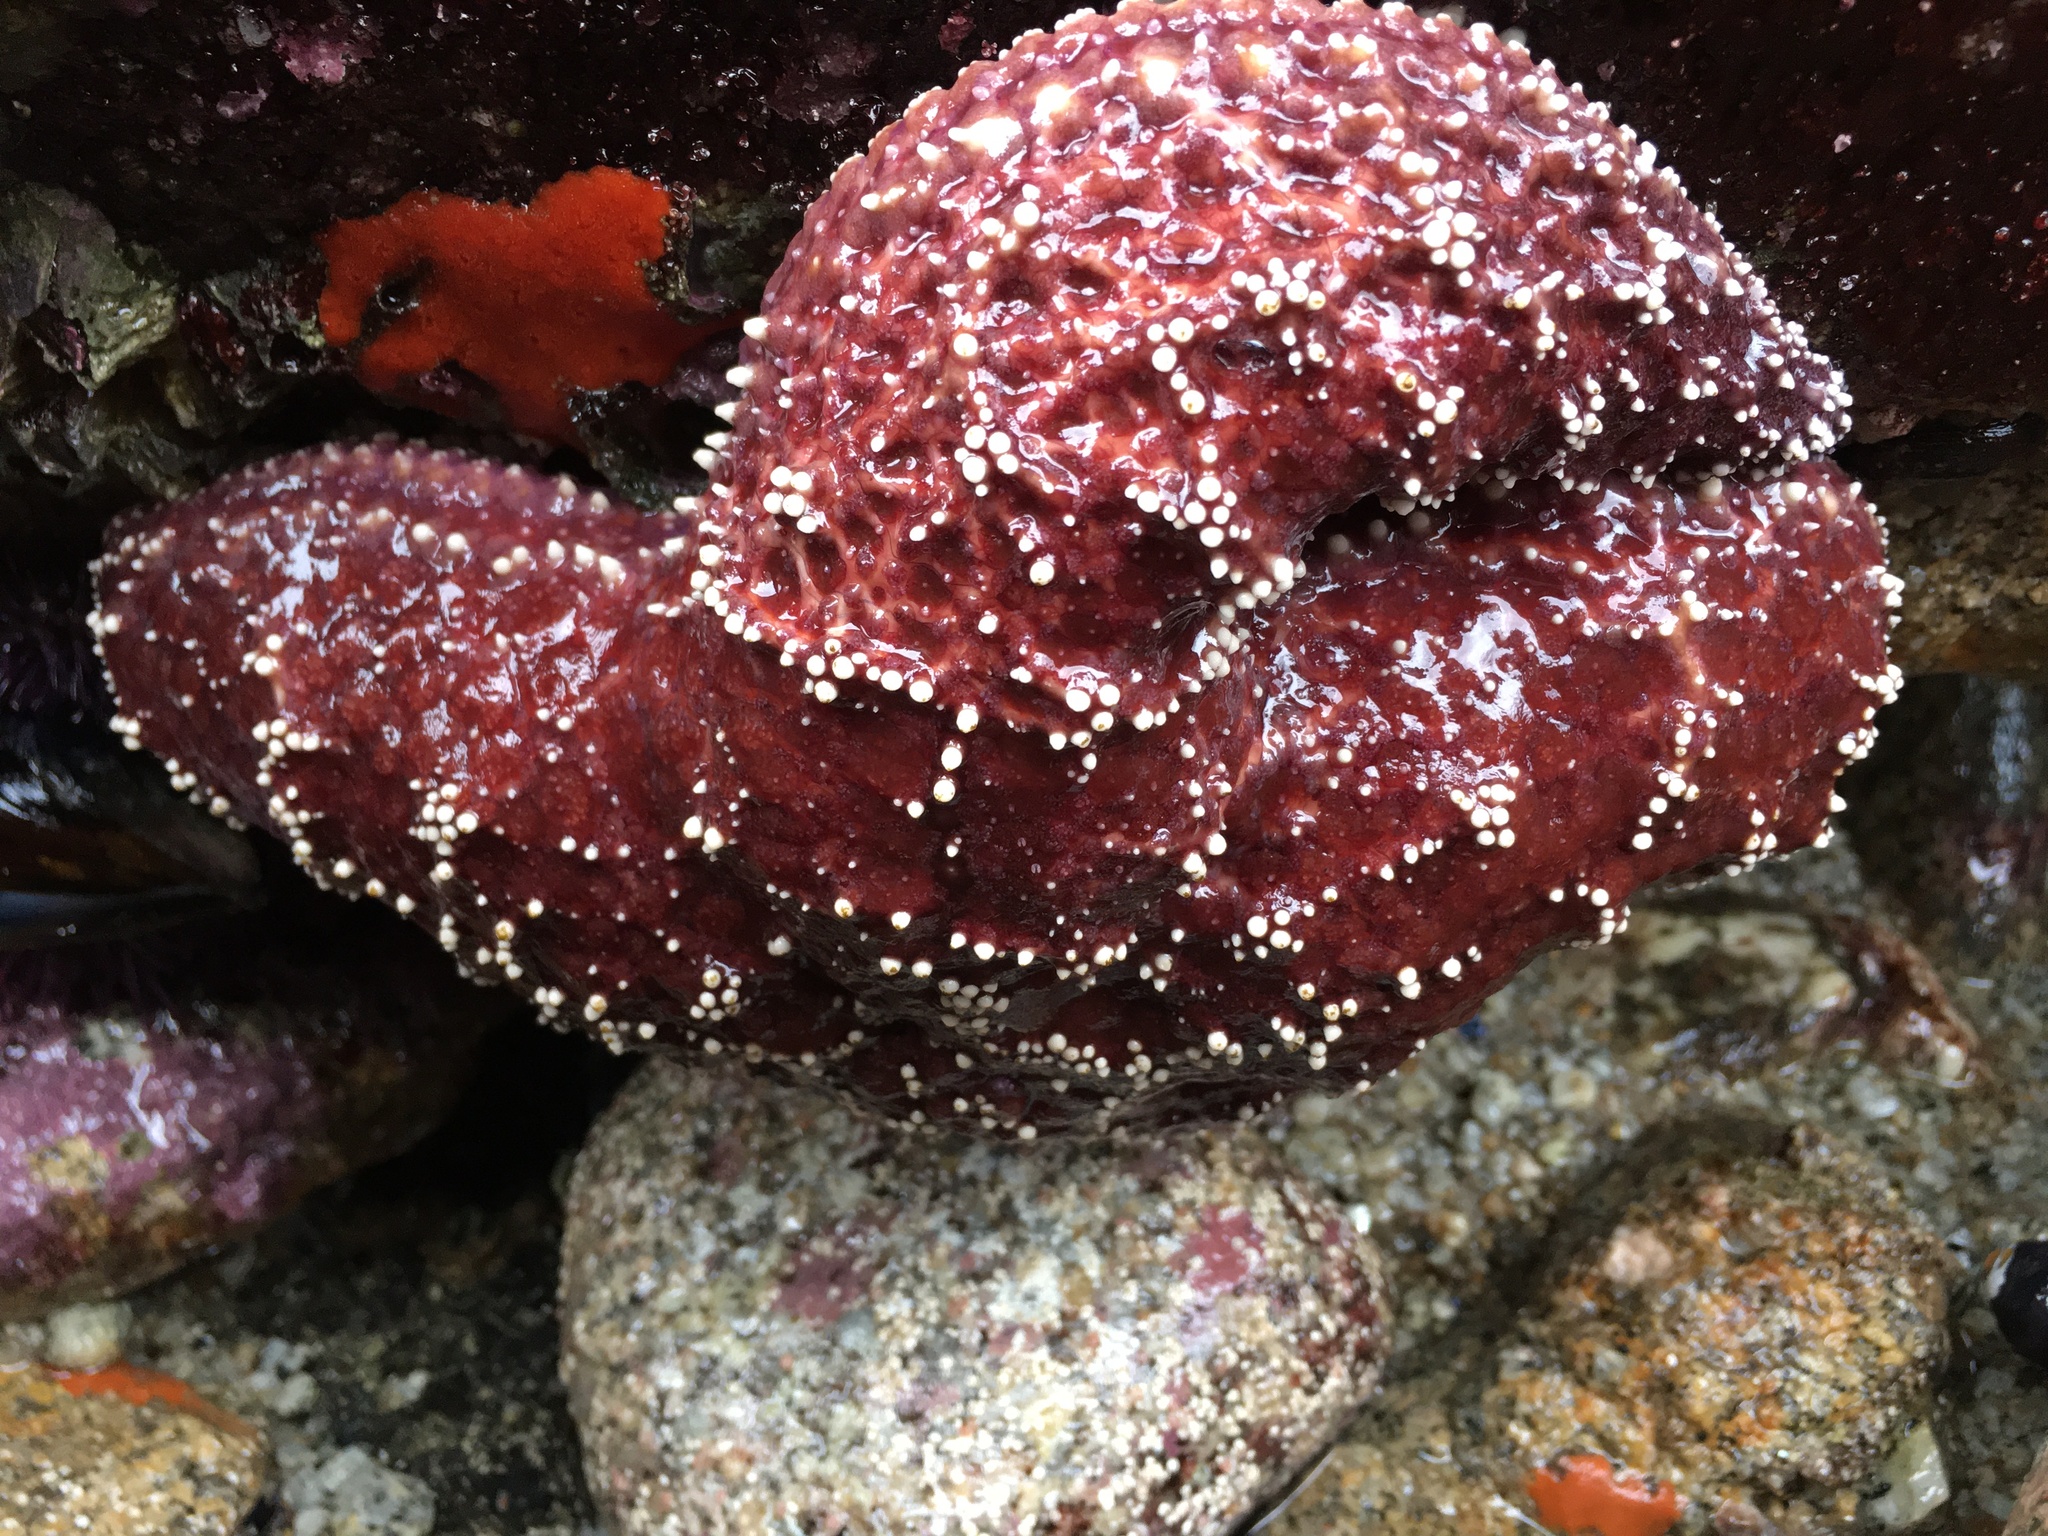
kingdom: Animalia
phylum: Echinodermata
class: Asteroidea
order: Forcipulatida
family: Asteriidae
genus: Pisaster
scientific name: Pisaster ochraceus
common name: Ochre stars
